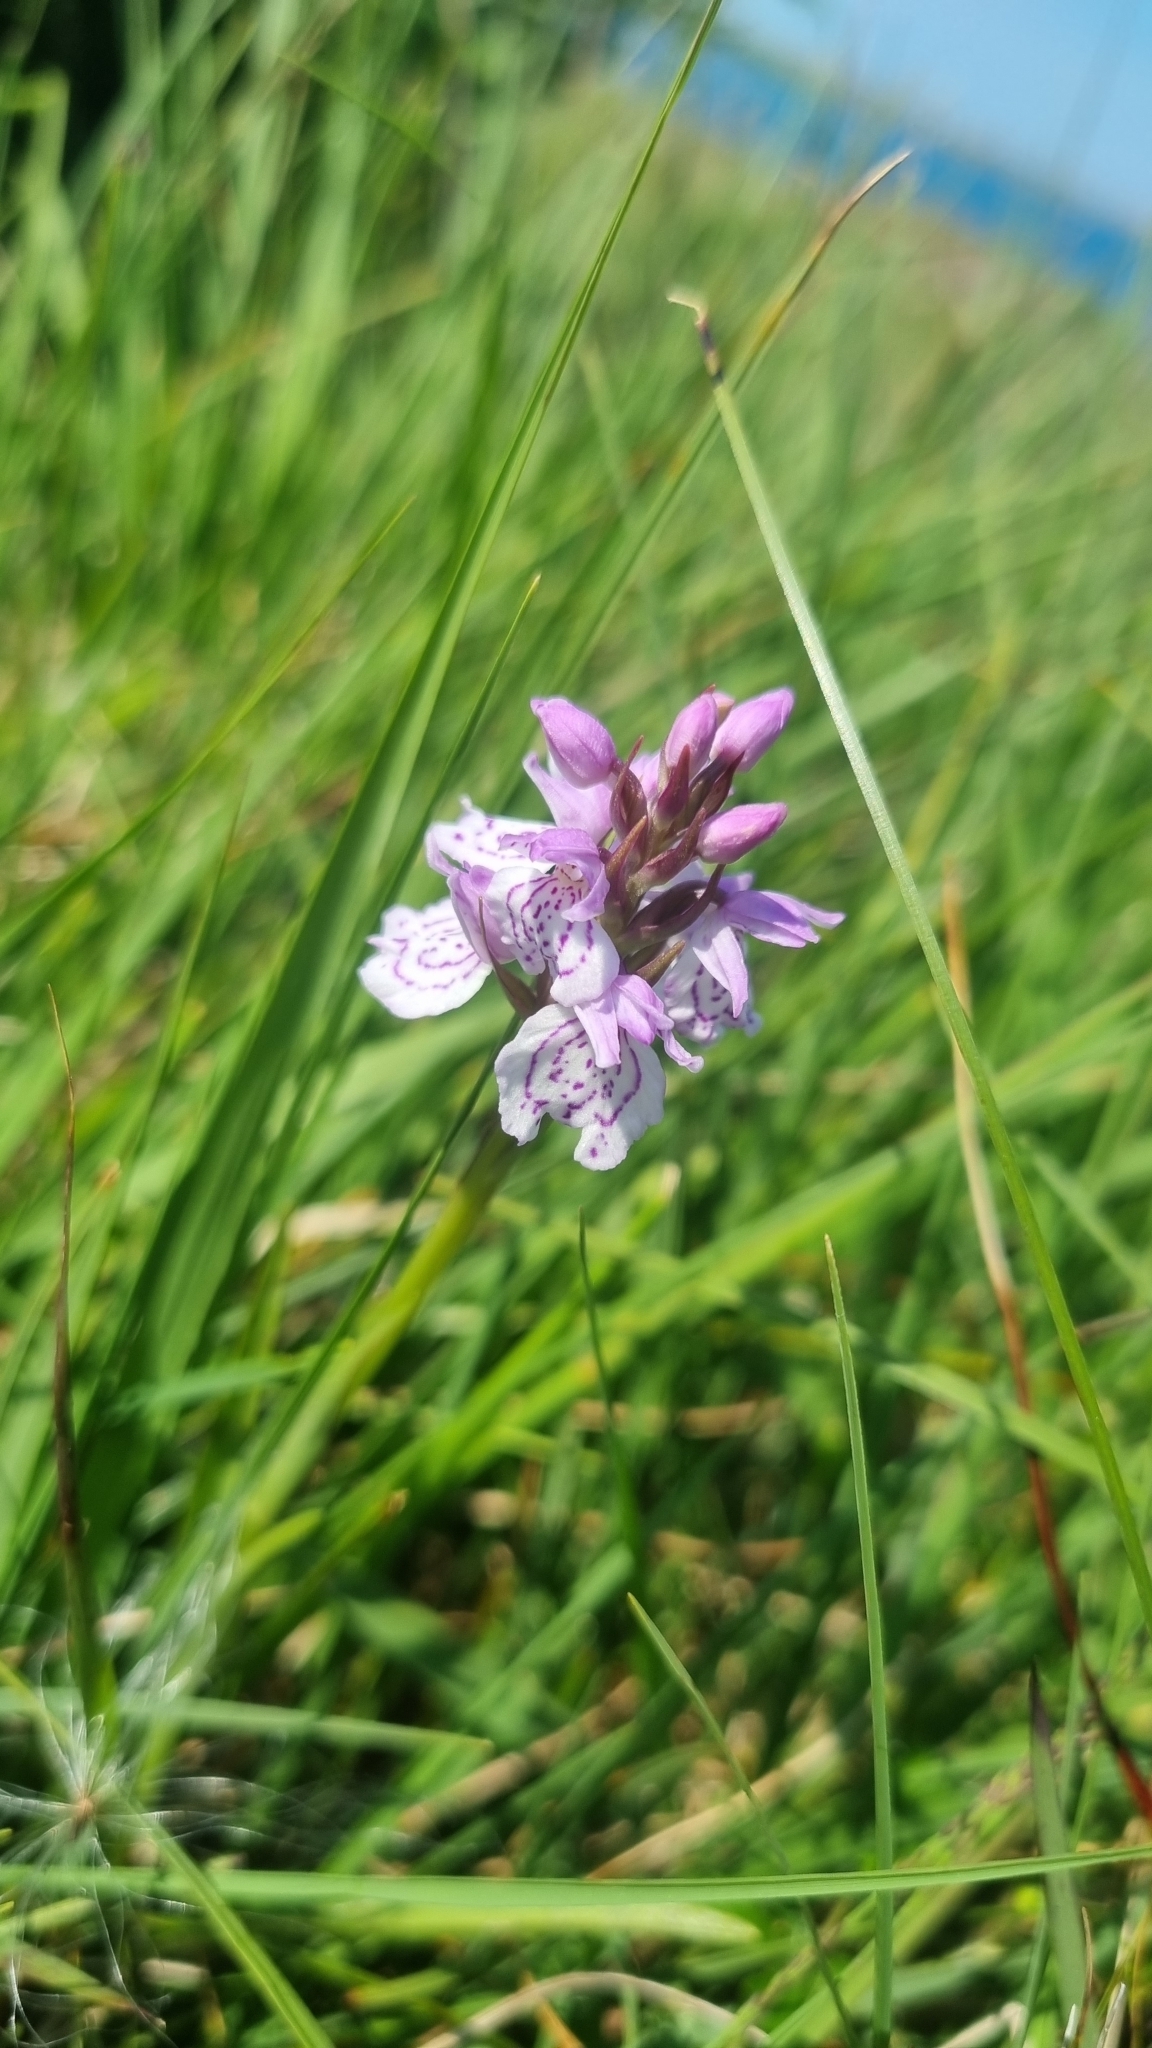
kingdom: Plantae
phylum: Tracheophyta
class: Liliopsida
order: Asparagales
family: Orchidaceae
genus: Dactylorhiza
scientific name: Dactylorhiza maculata
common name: Heath spotted-orchid
